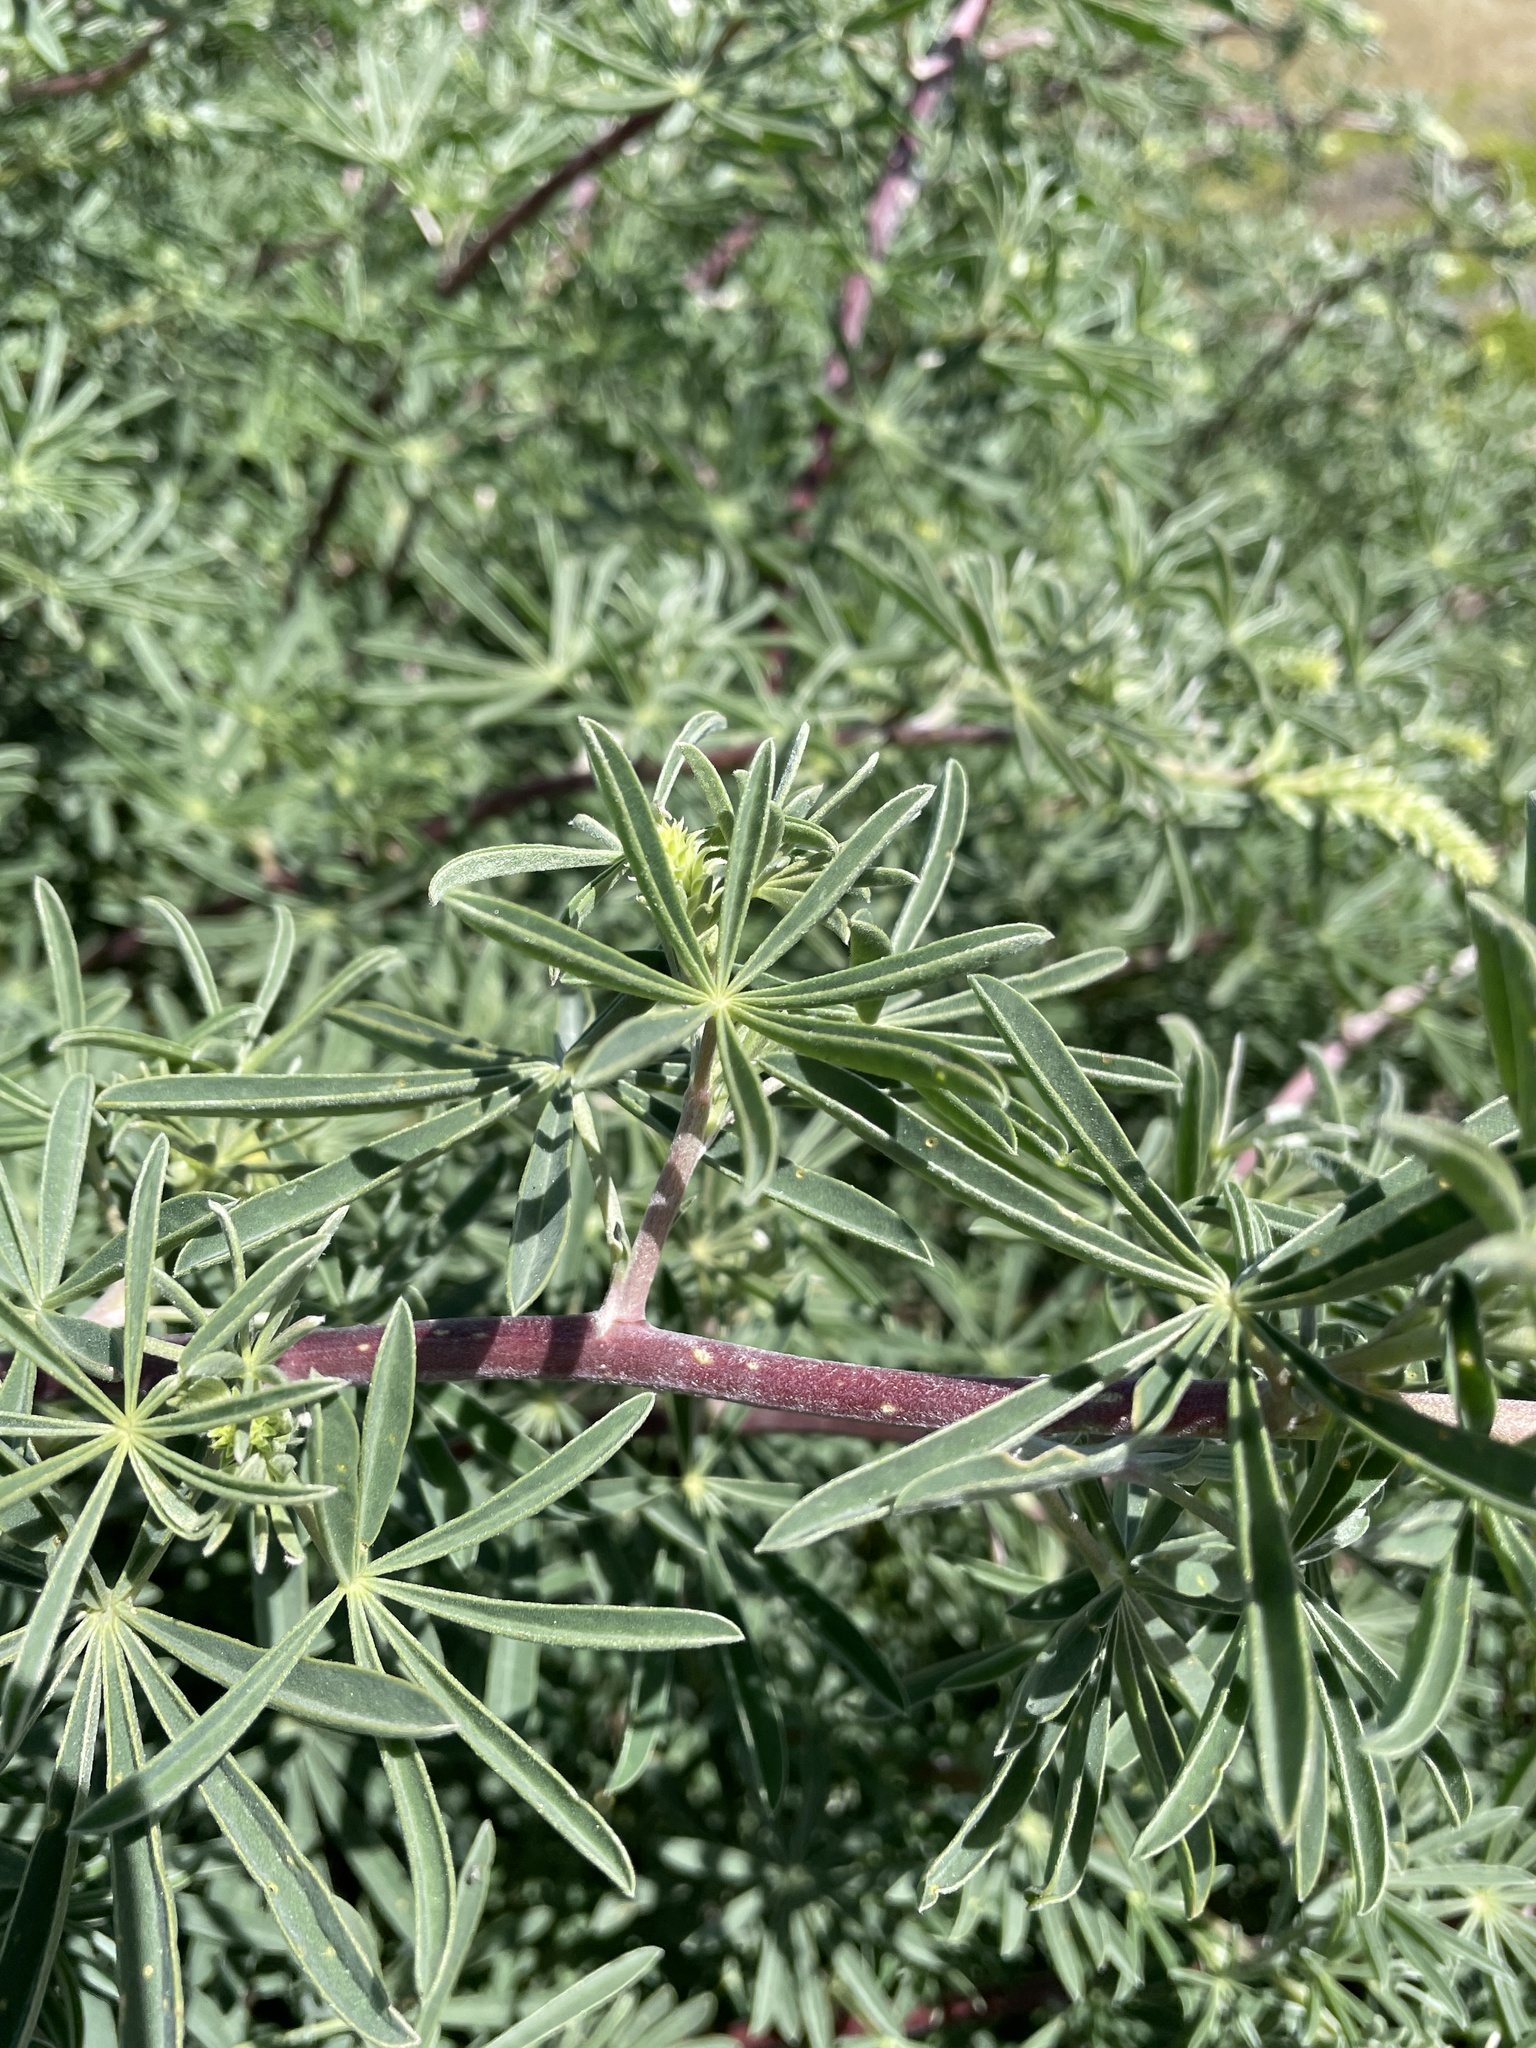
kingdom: Plantae
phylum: Tracheophyta
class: Magnoliopsida
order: Fabales
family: Fabaceae
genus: Lupinus
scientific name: Lupinus arboreus
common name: Yellow bush lupine
